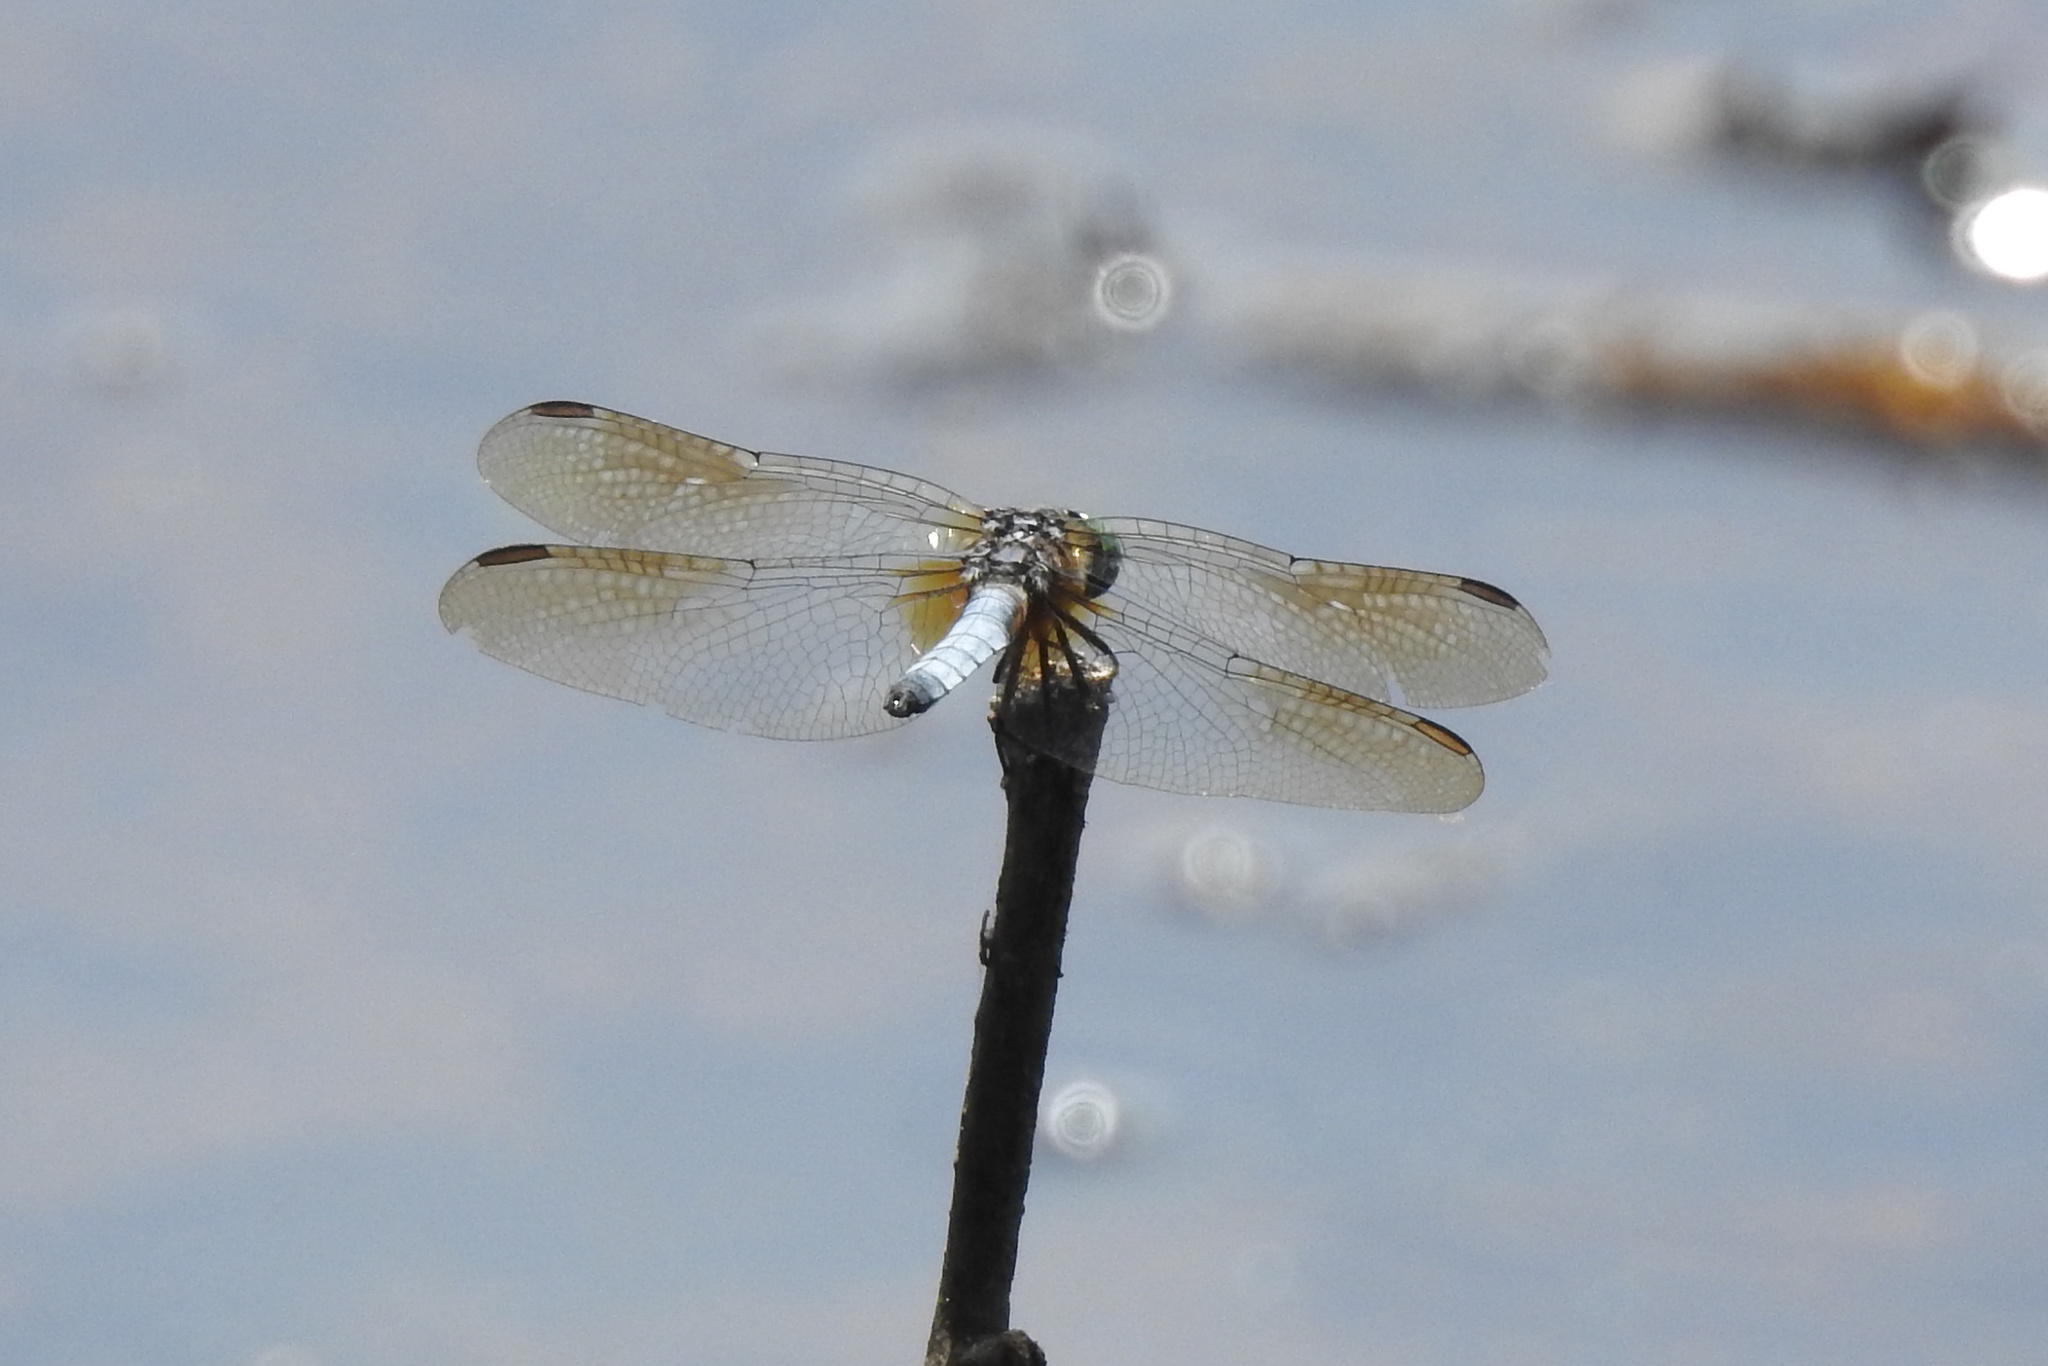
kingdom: Animalia
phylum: Arthropoda
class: Insecta
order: Odonata
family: Libellulidae
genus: Pachydiplax
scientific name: Pachydiplax longipennis
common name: Blue dasher
